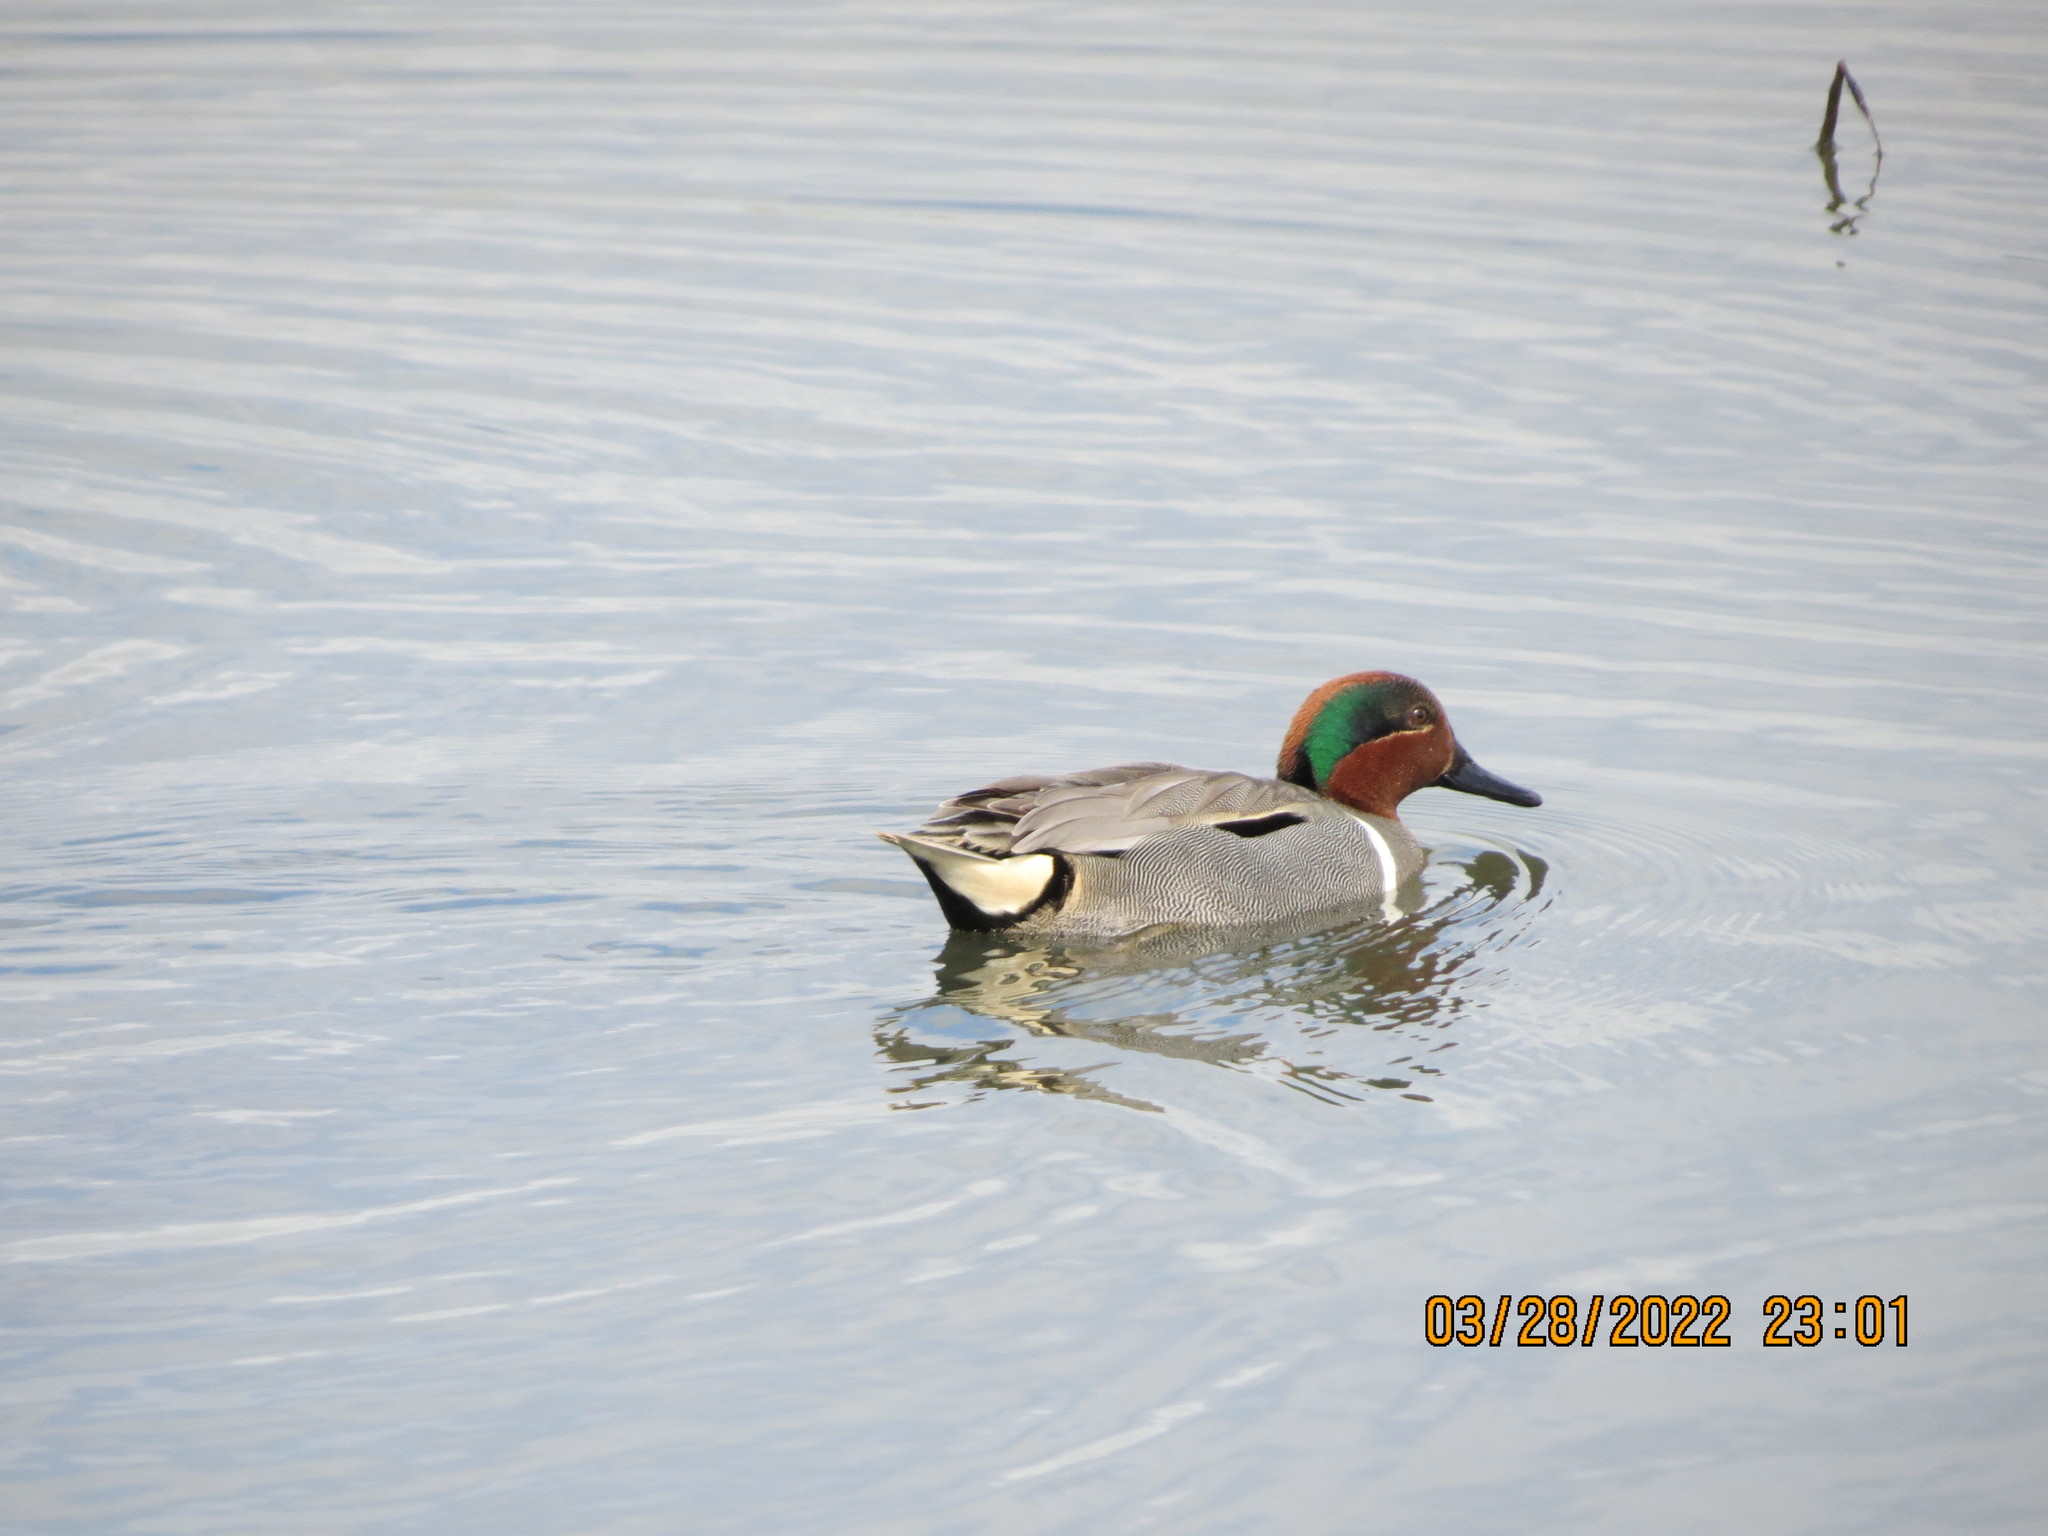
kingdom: Animalia
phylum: Chordata
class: Aves
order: Anseriformes
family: Anatidae
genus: Anas
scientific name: Anas crecca
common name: Eurasian teal
